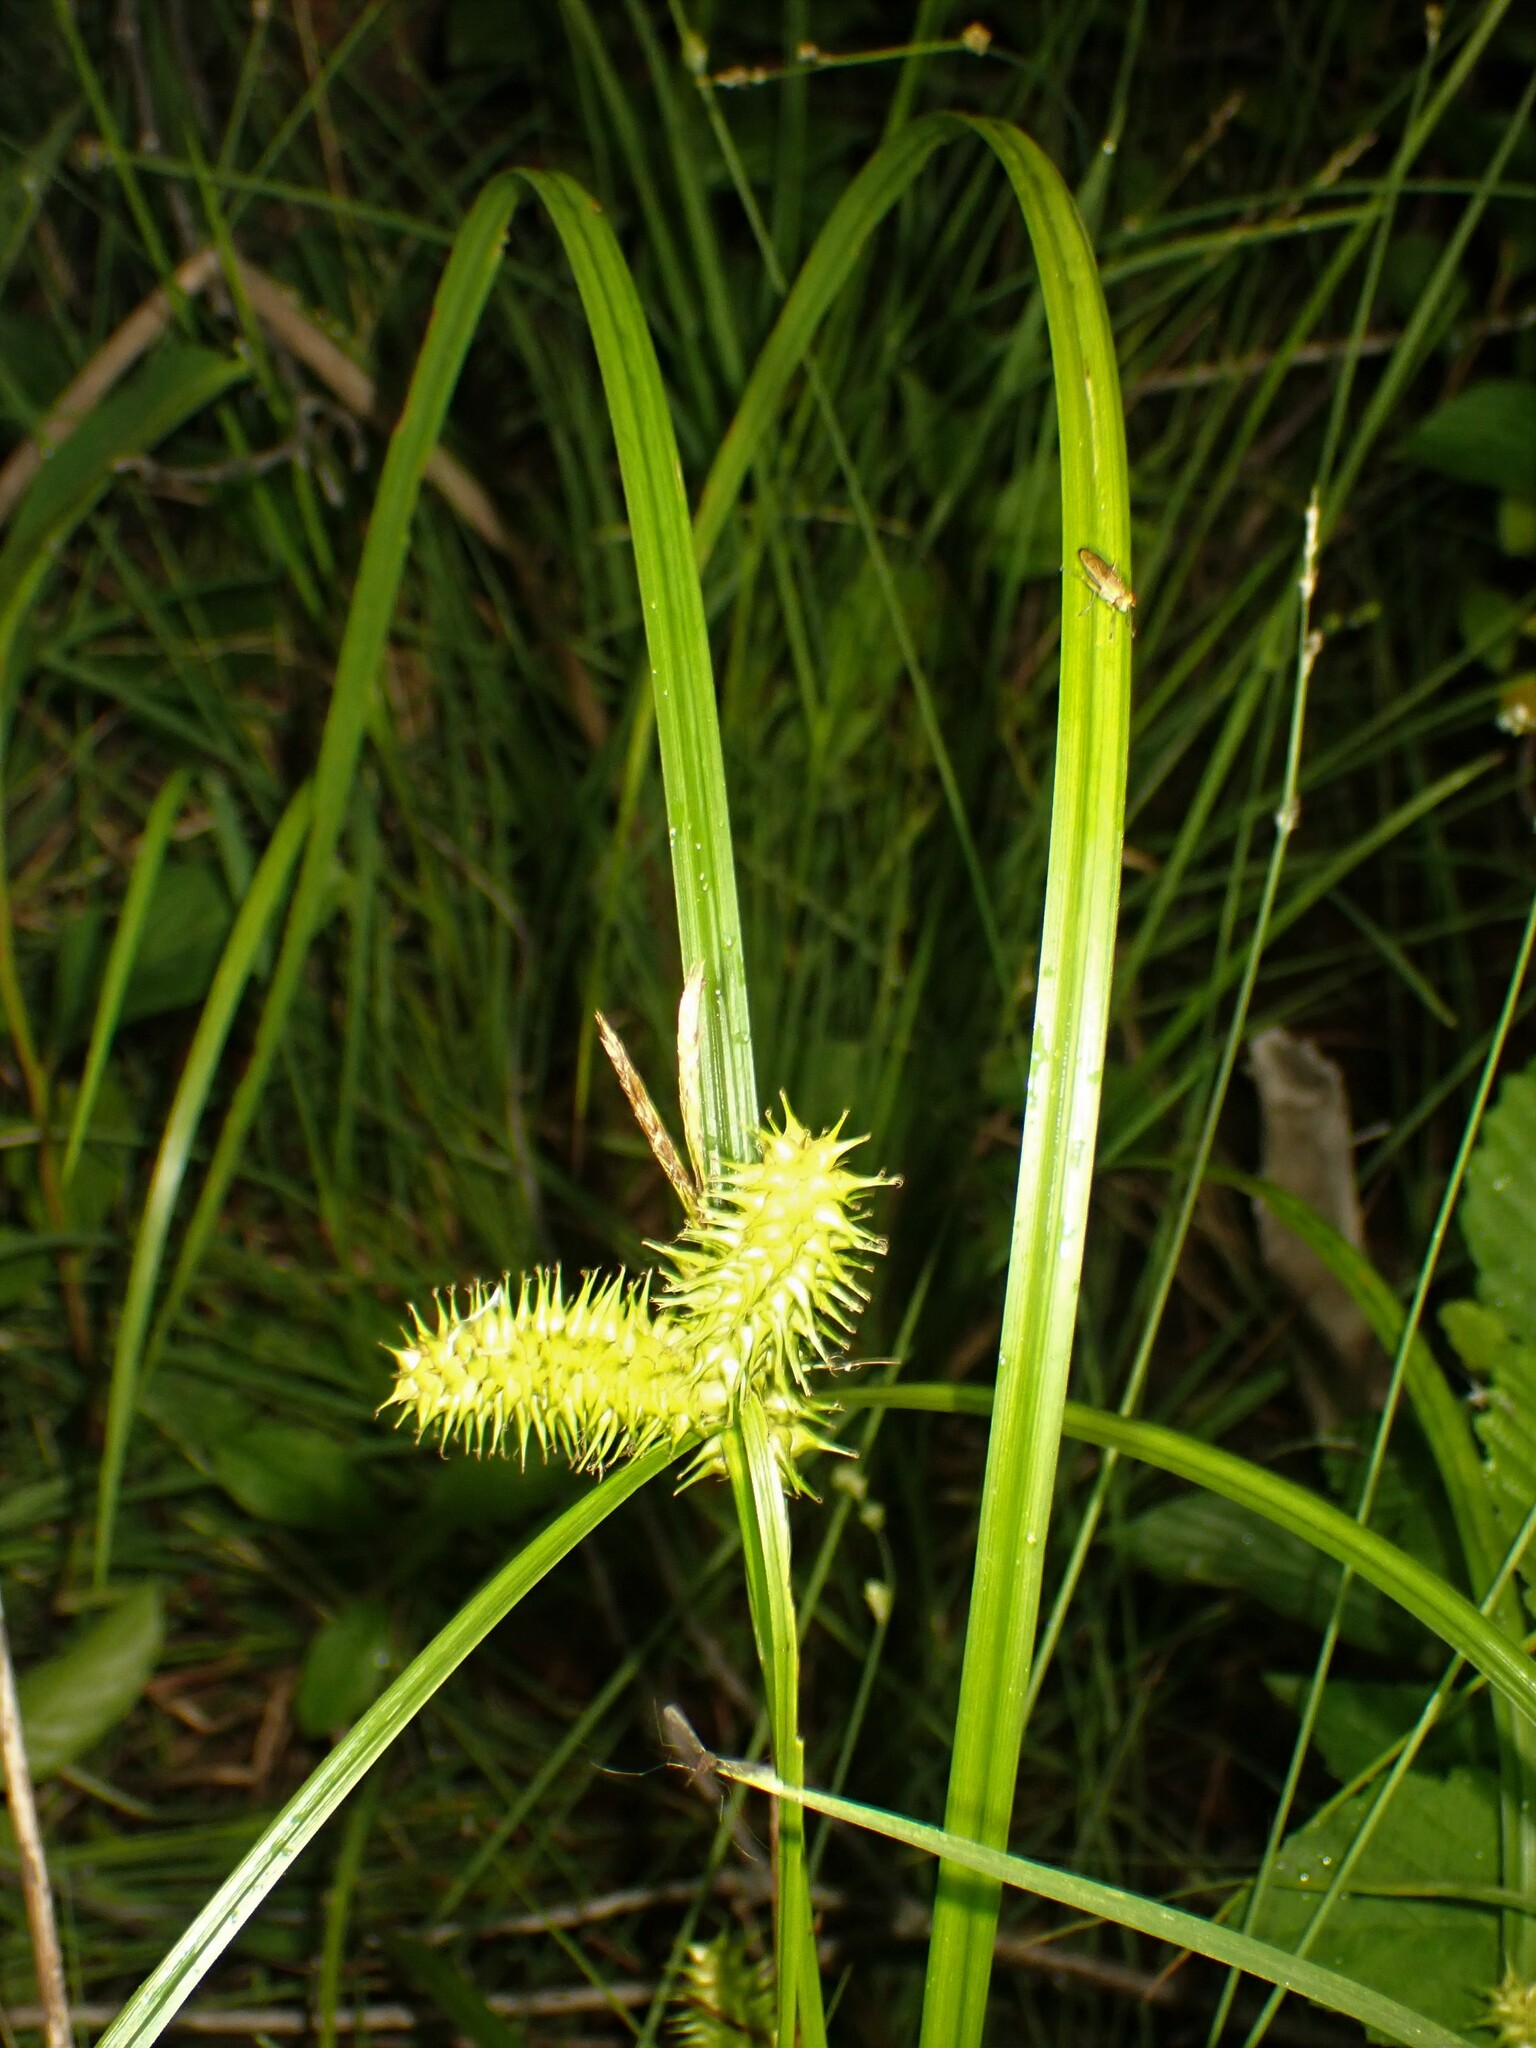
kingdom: Plantae
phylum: Tracheophyta
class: Liliopsida
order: Poales
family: Cyperaceae
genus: Carex
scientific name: Carex retrorsa
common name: Knot-sheath sedge
